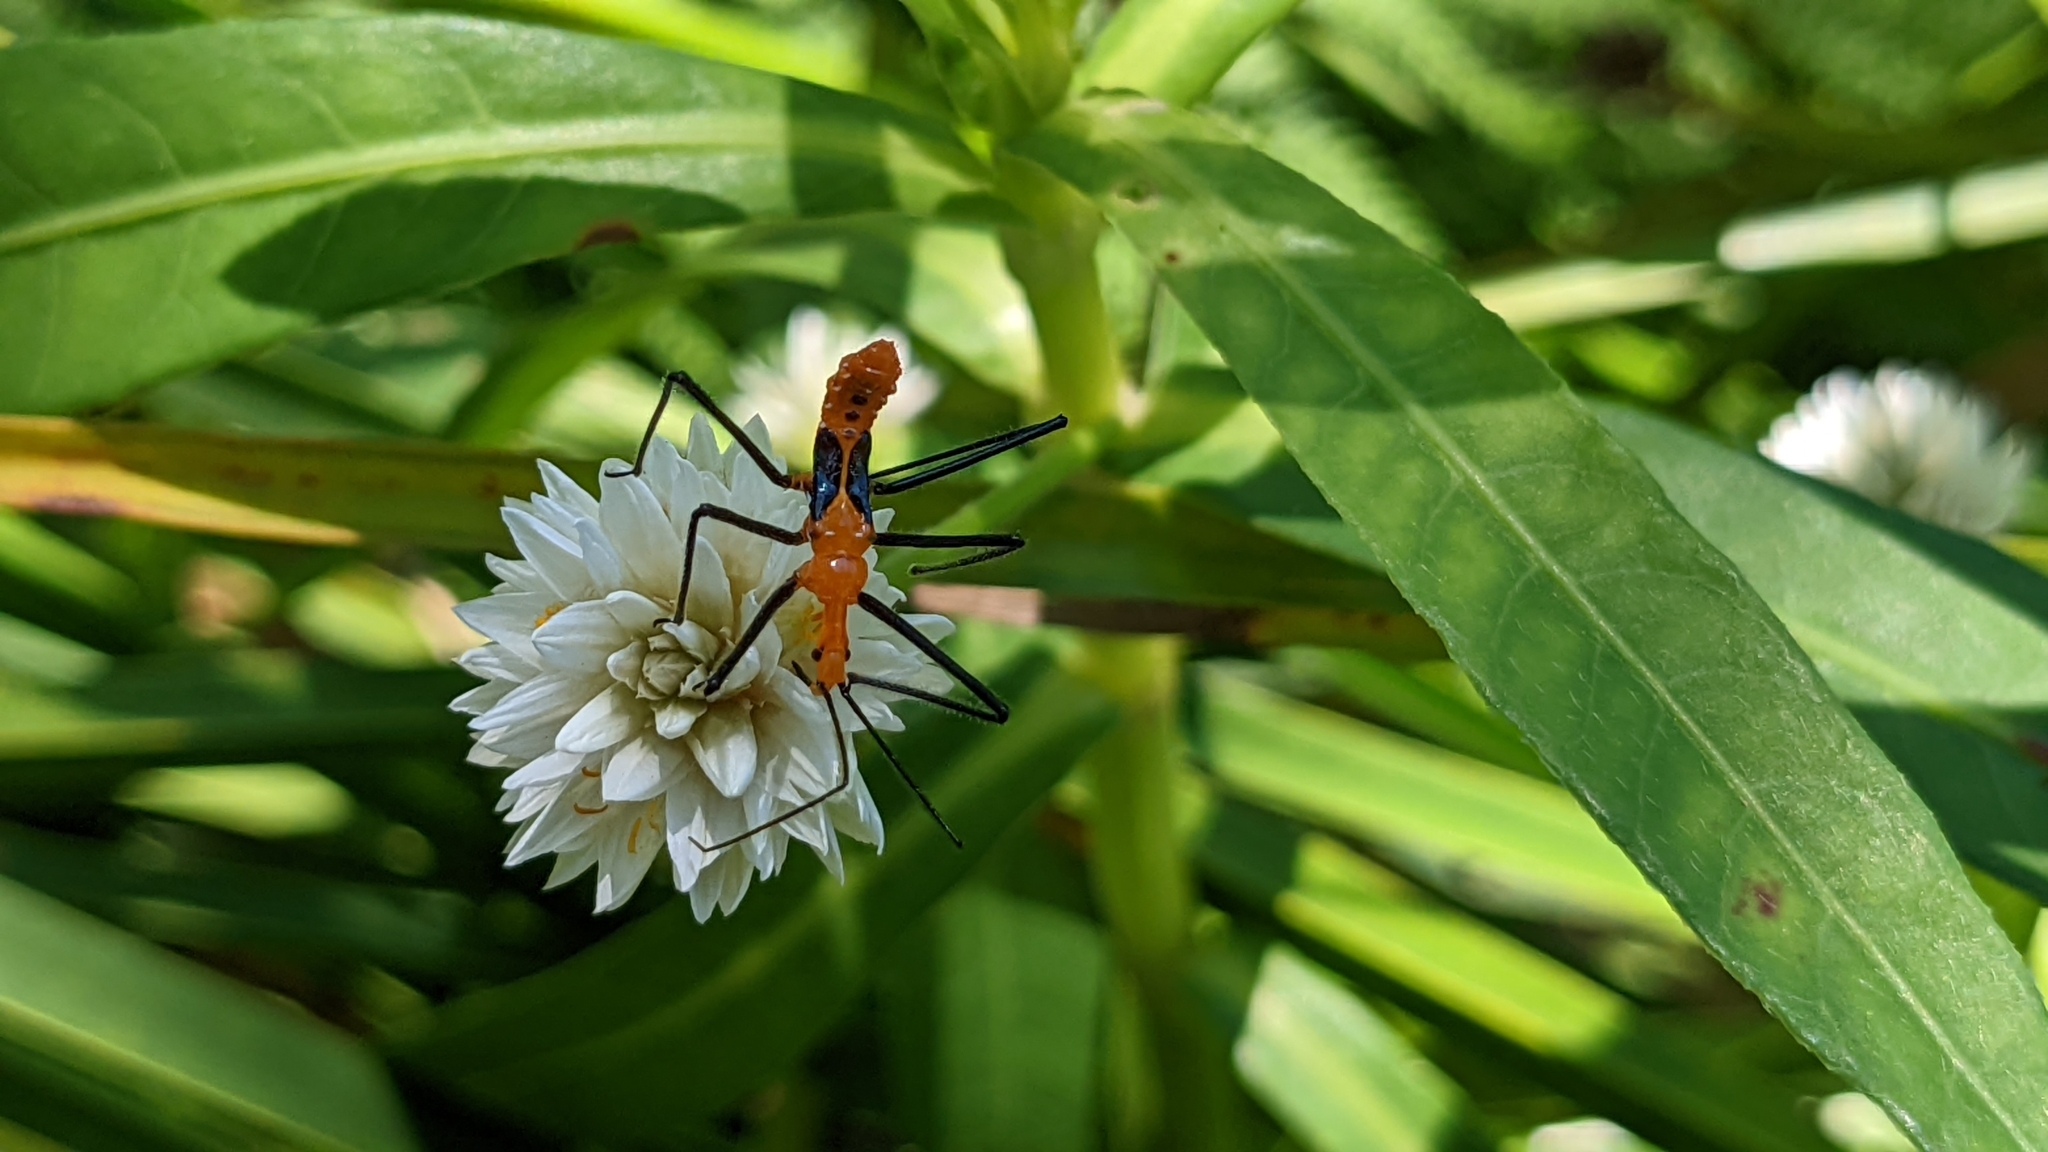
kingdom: Animalia
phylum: Arthropoda
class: Insecta
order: Hemiptera
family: Reduviidae
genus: Zelus
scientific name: Zelus longipes
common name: Milkweed assassin bug
